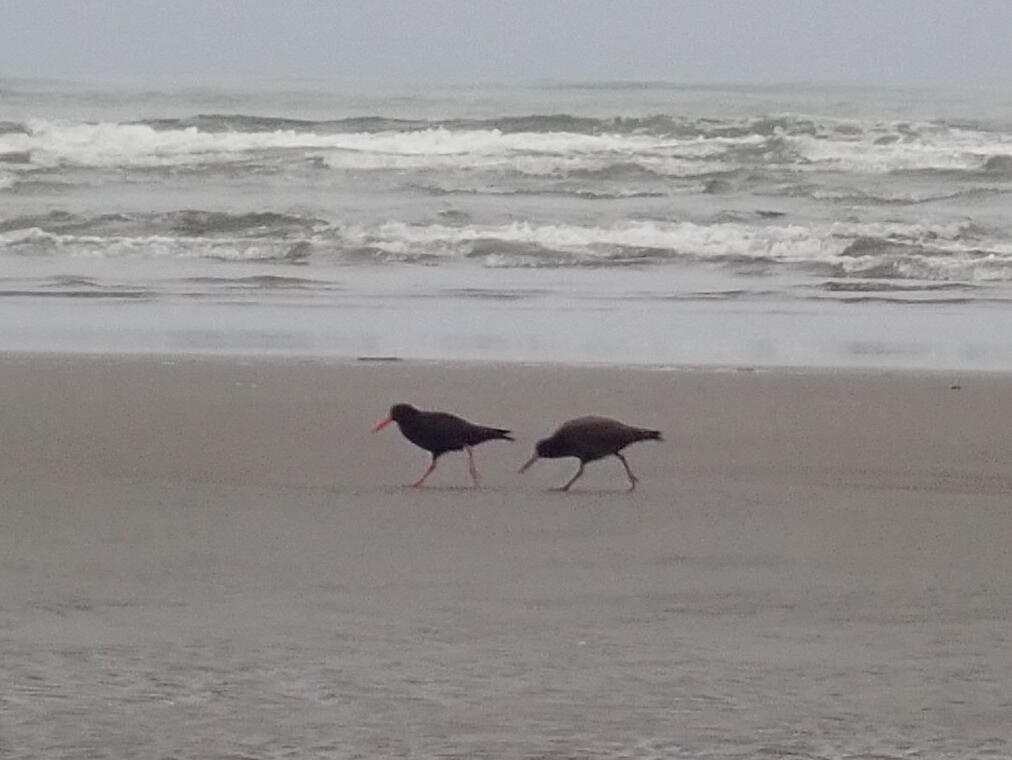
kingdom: Animalia
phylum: Chordata
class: Aves
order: Charadriiformes
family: Haematopodidae
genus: Haematopus
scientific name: Haematopus unicolor
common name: Variable oystercatcher
